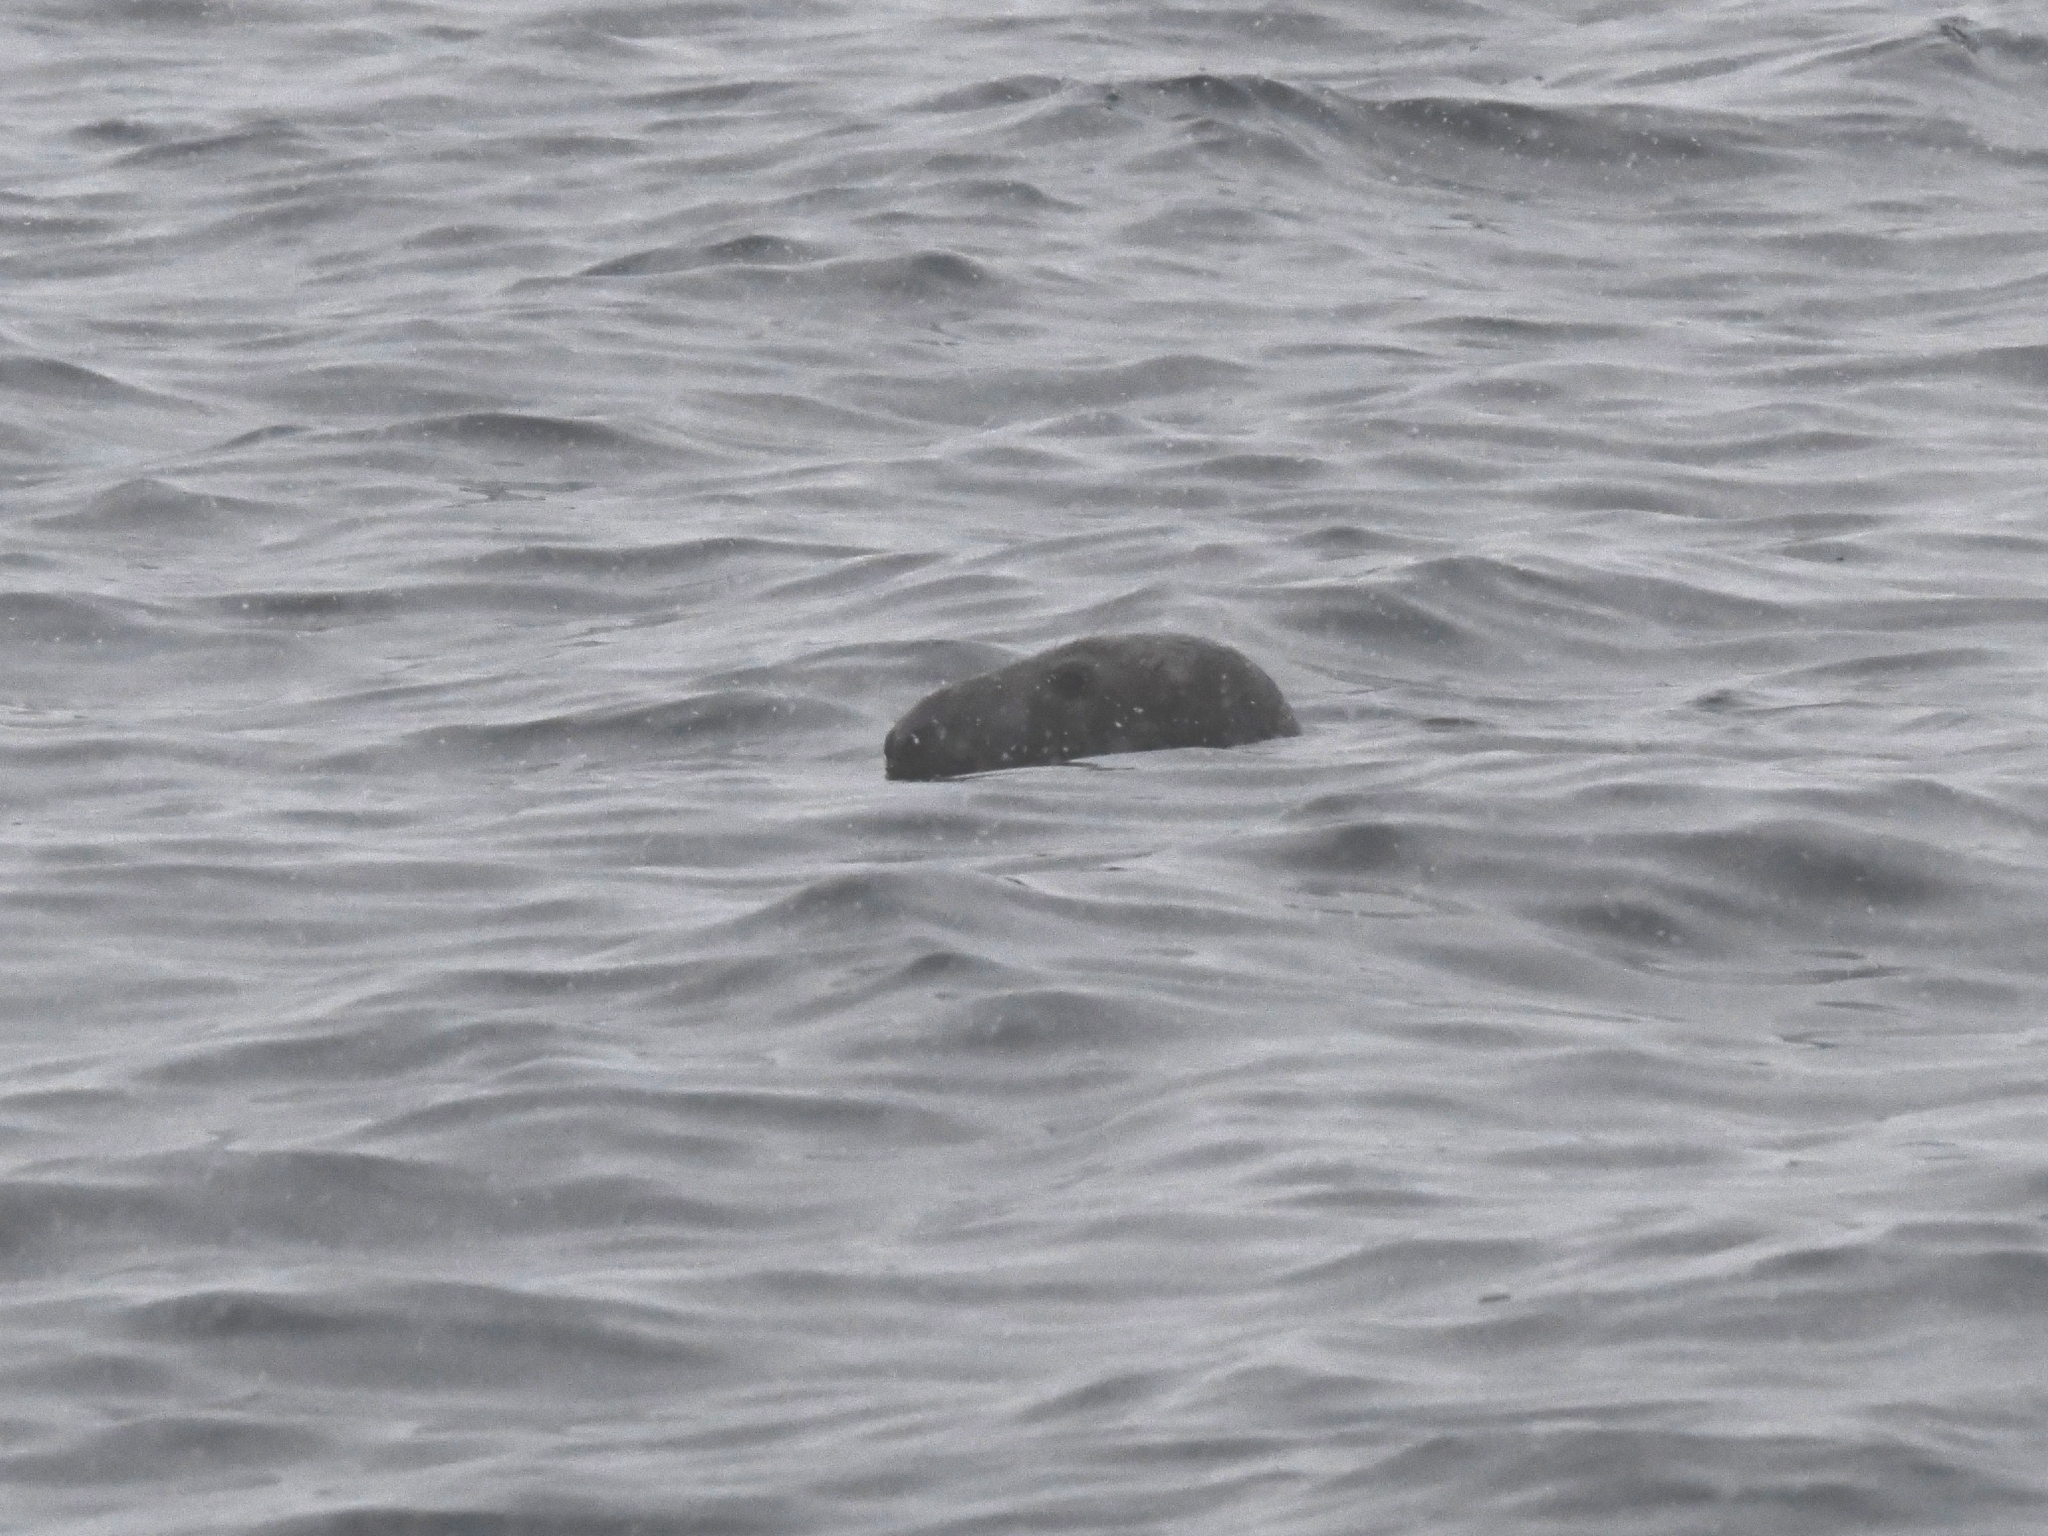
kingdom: Animalia
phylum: Chordata
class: Mammalia
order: Carnivora
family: Phocidae
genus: Halichoerus
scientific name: Halichoerus grypus
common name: Grey seal
